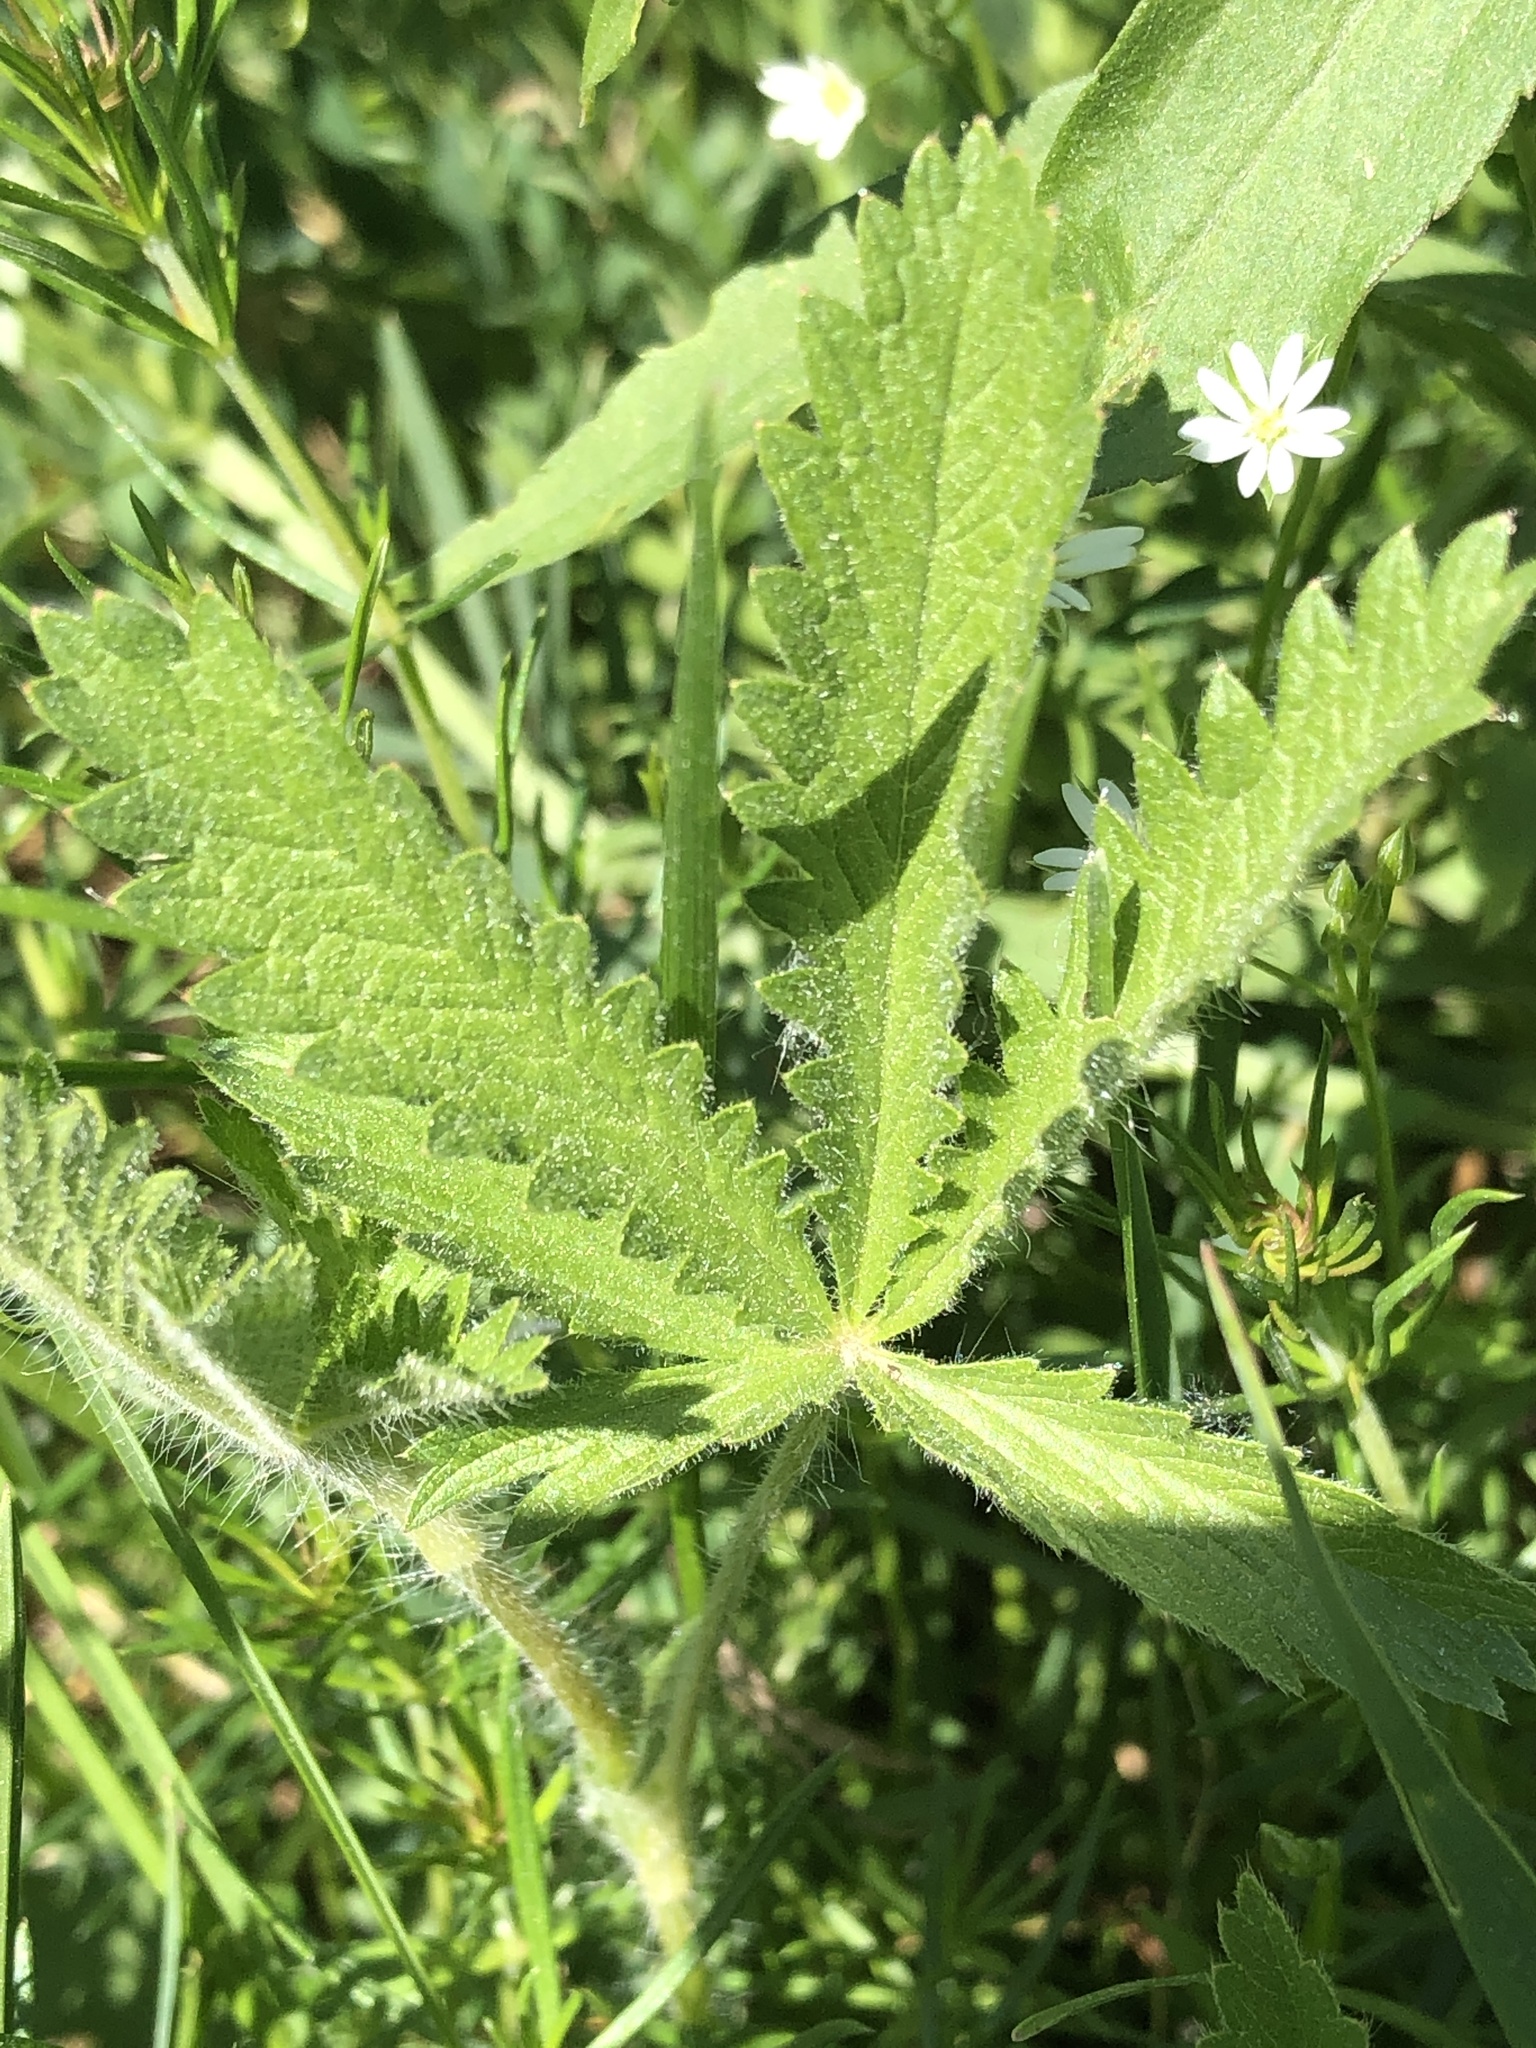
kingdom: Plantae
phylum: Tracheophyta
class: Magnoliopsida
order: Rosales
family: Rosaceae
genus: Potentilla
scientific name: Potentilla recta
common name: Sulphur cinquefoil
